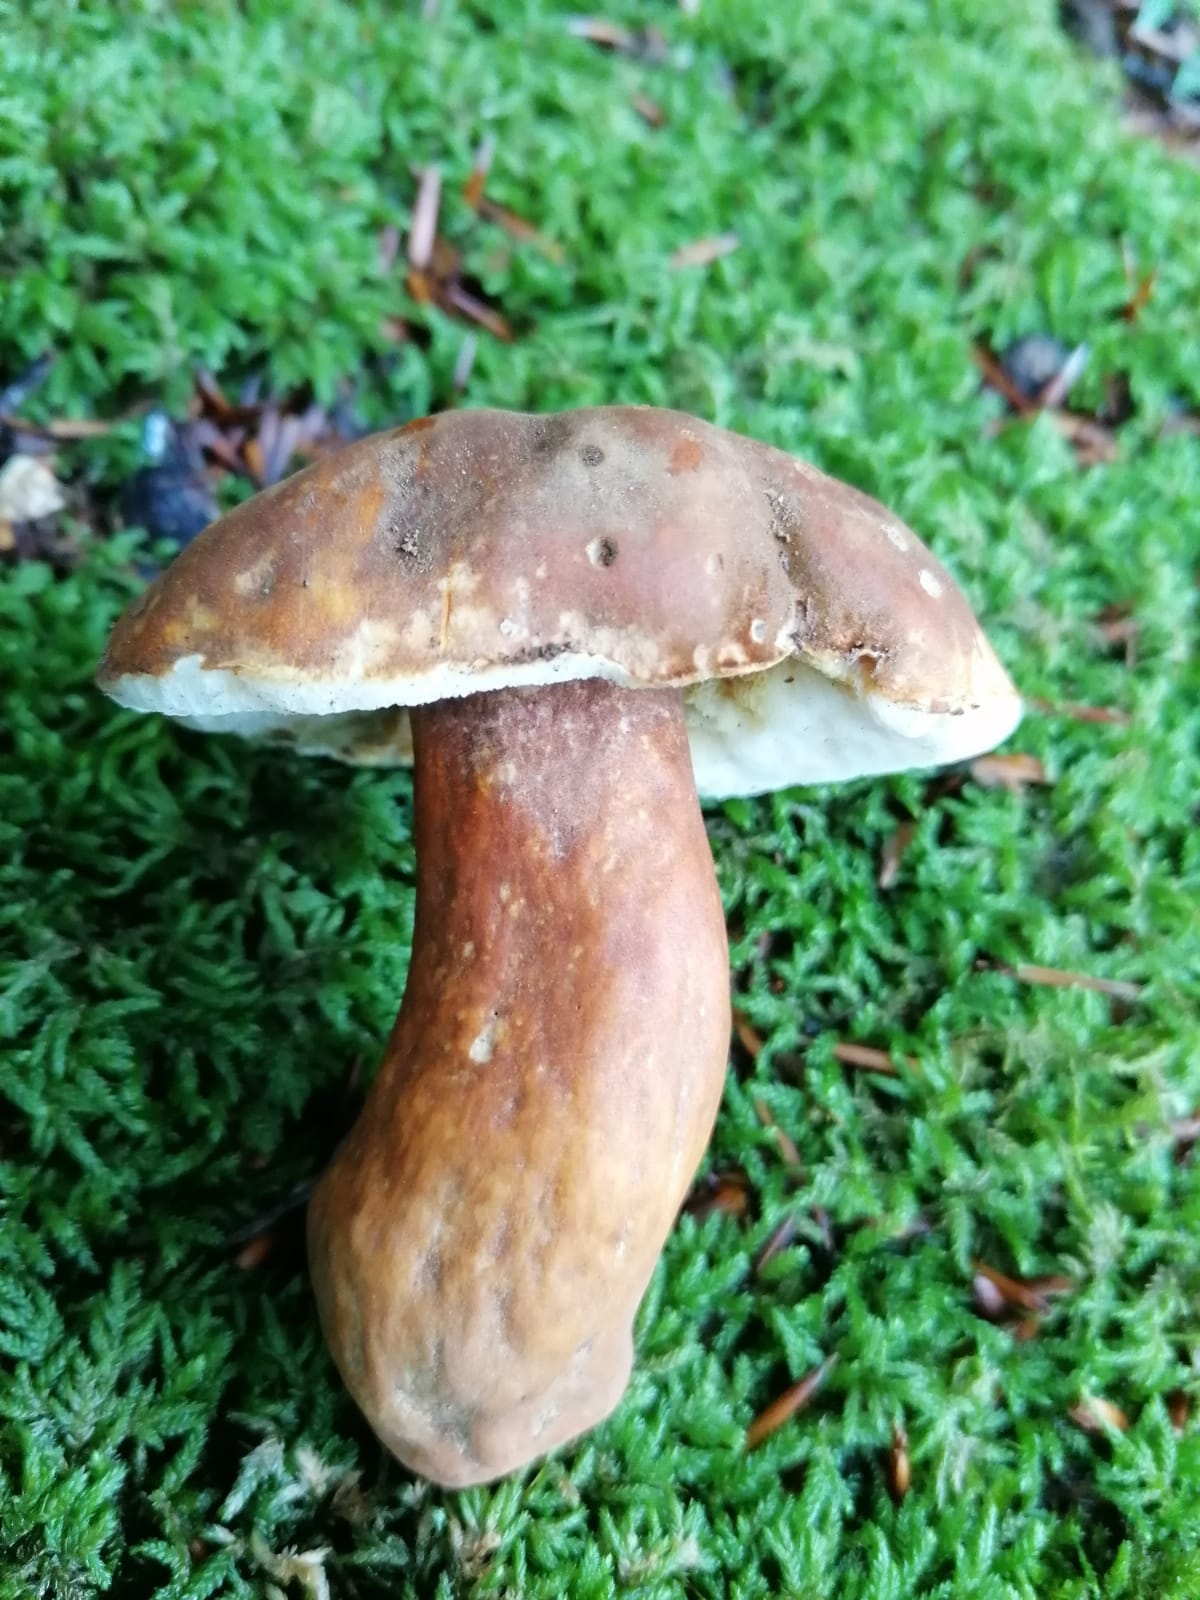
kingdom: Fungi
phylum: Basidiomycota
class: Agaricomycetes
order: Boletales
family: Gyroporaceae
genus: Gyroporus
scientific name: Gyroporus castaneus
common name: Chestnut bolete
